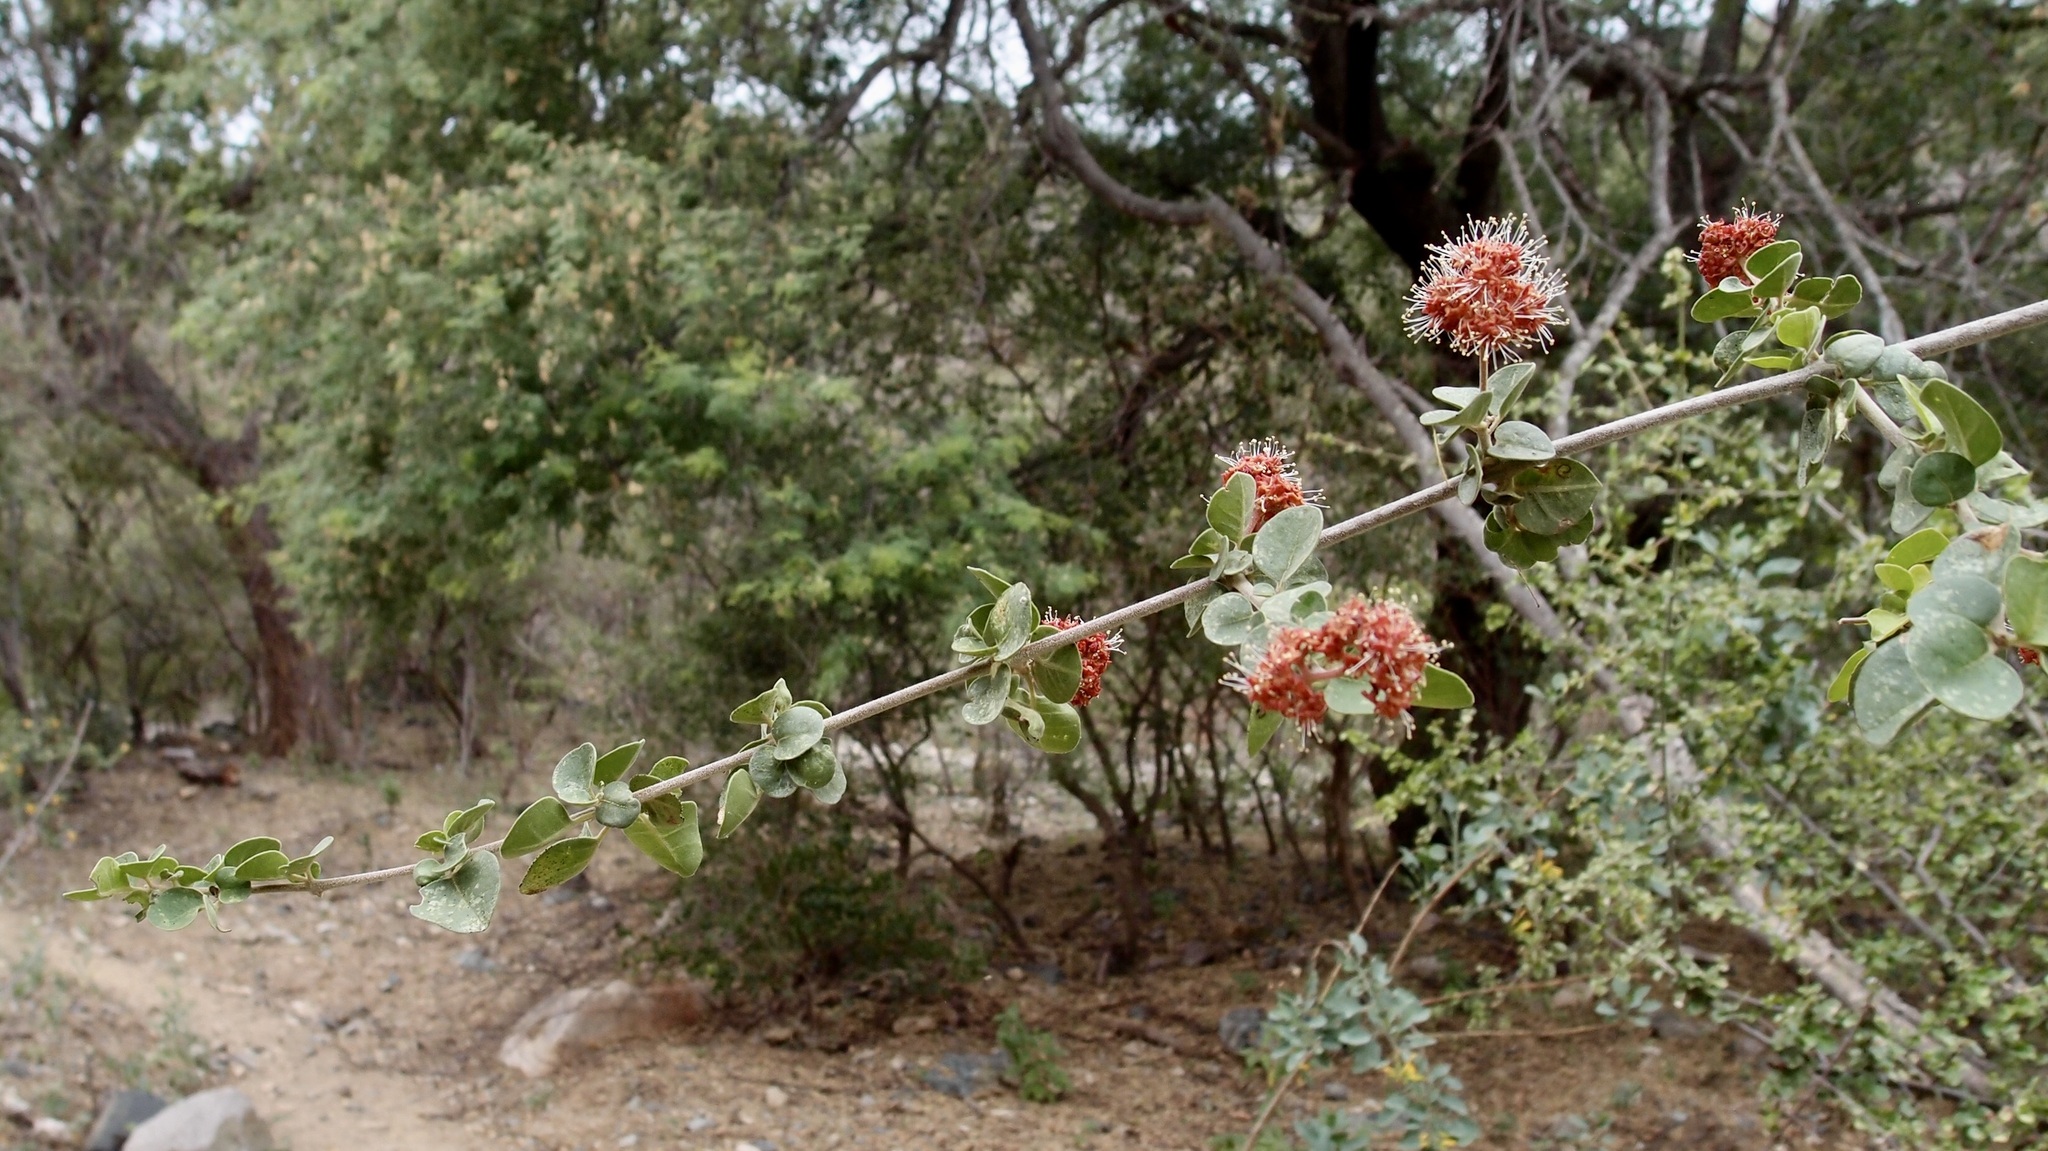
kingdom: Plantae
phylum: Tracheophyta
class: Magnoliopsida
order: Caryophyllales
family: Nyctaginaceae
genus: Pisonia
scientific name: Pisonia capitata
